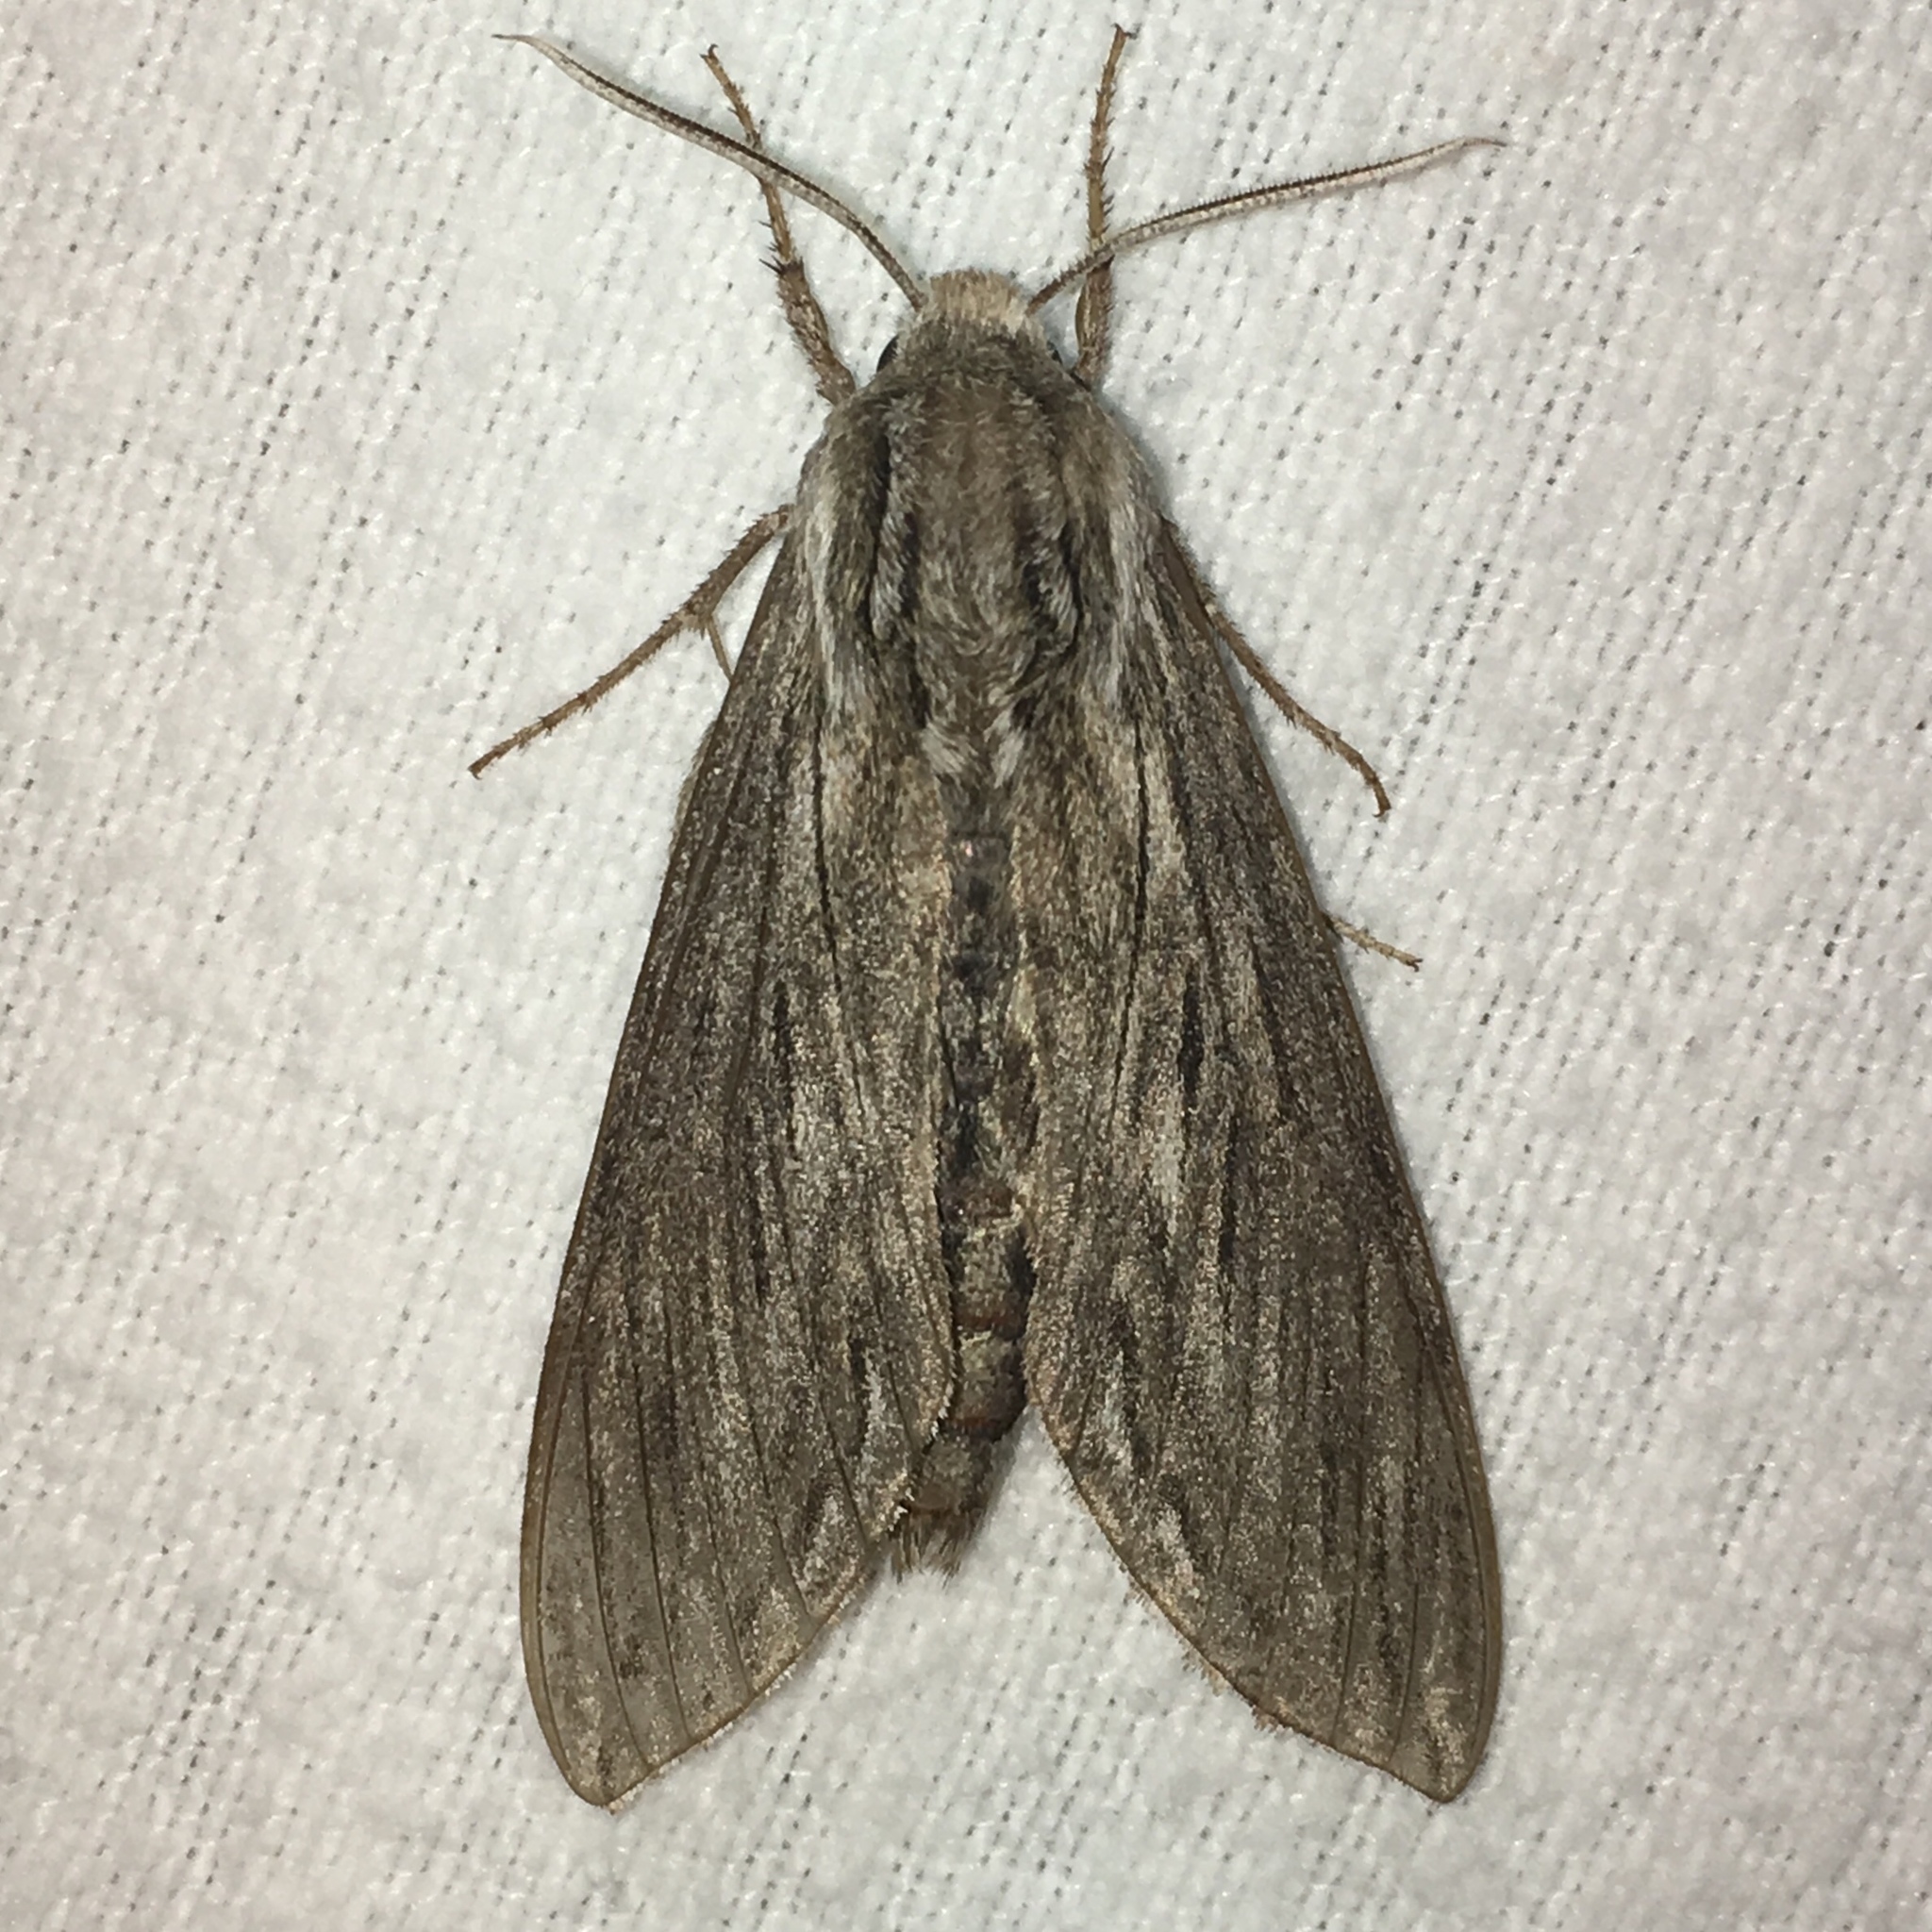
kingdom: Animalia
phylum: Arthropoda
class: Insecta
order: Lepidoptera
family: Sphingidae
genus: Sphinx
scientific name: Sphinx canadensis
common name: Canadian sphinx
